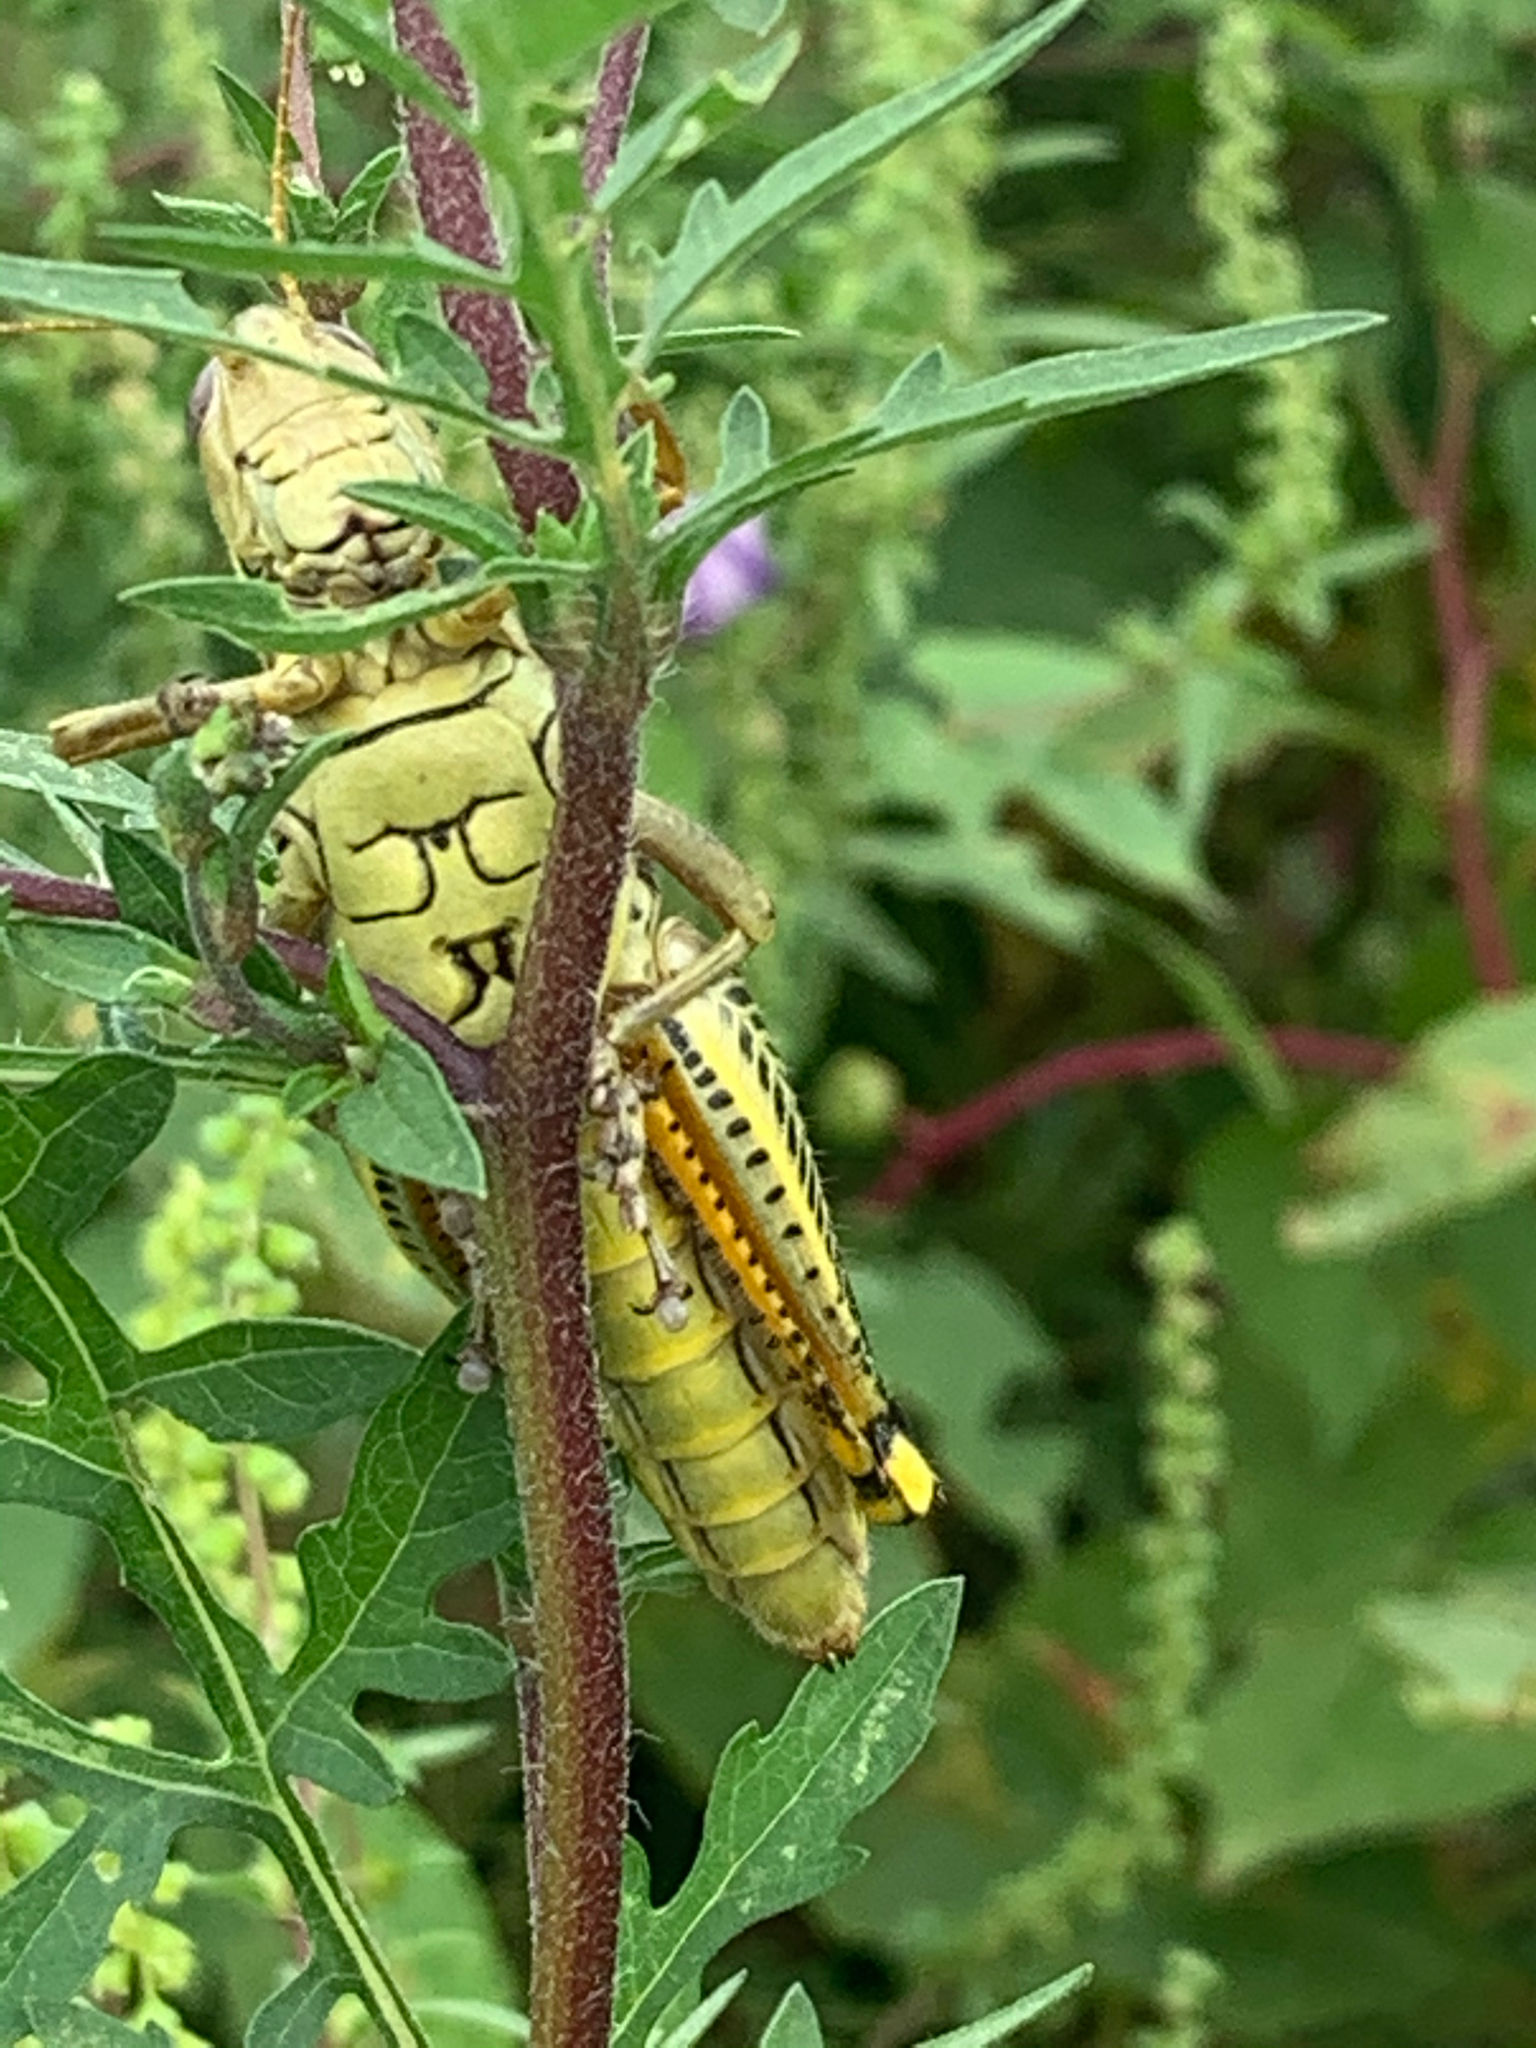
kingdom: Animalia
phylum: Arthropoda
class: Insecta
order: Orthoptera
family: Acrididae
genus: Melanoplus
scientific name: Melanoplus differentialis
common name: Differential grasshopper
